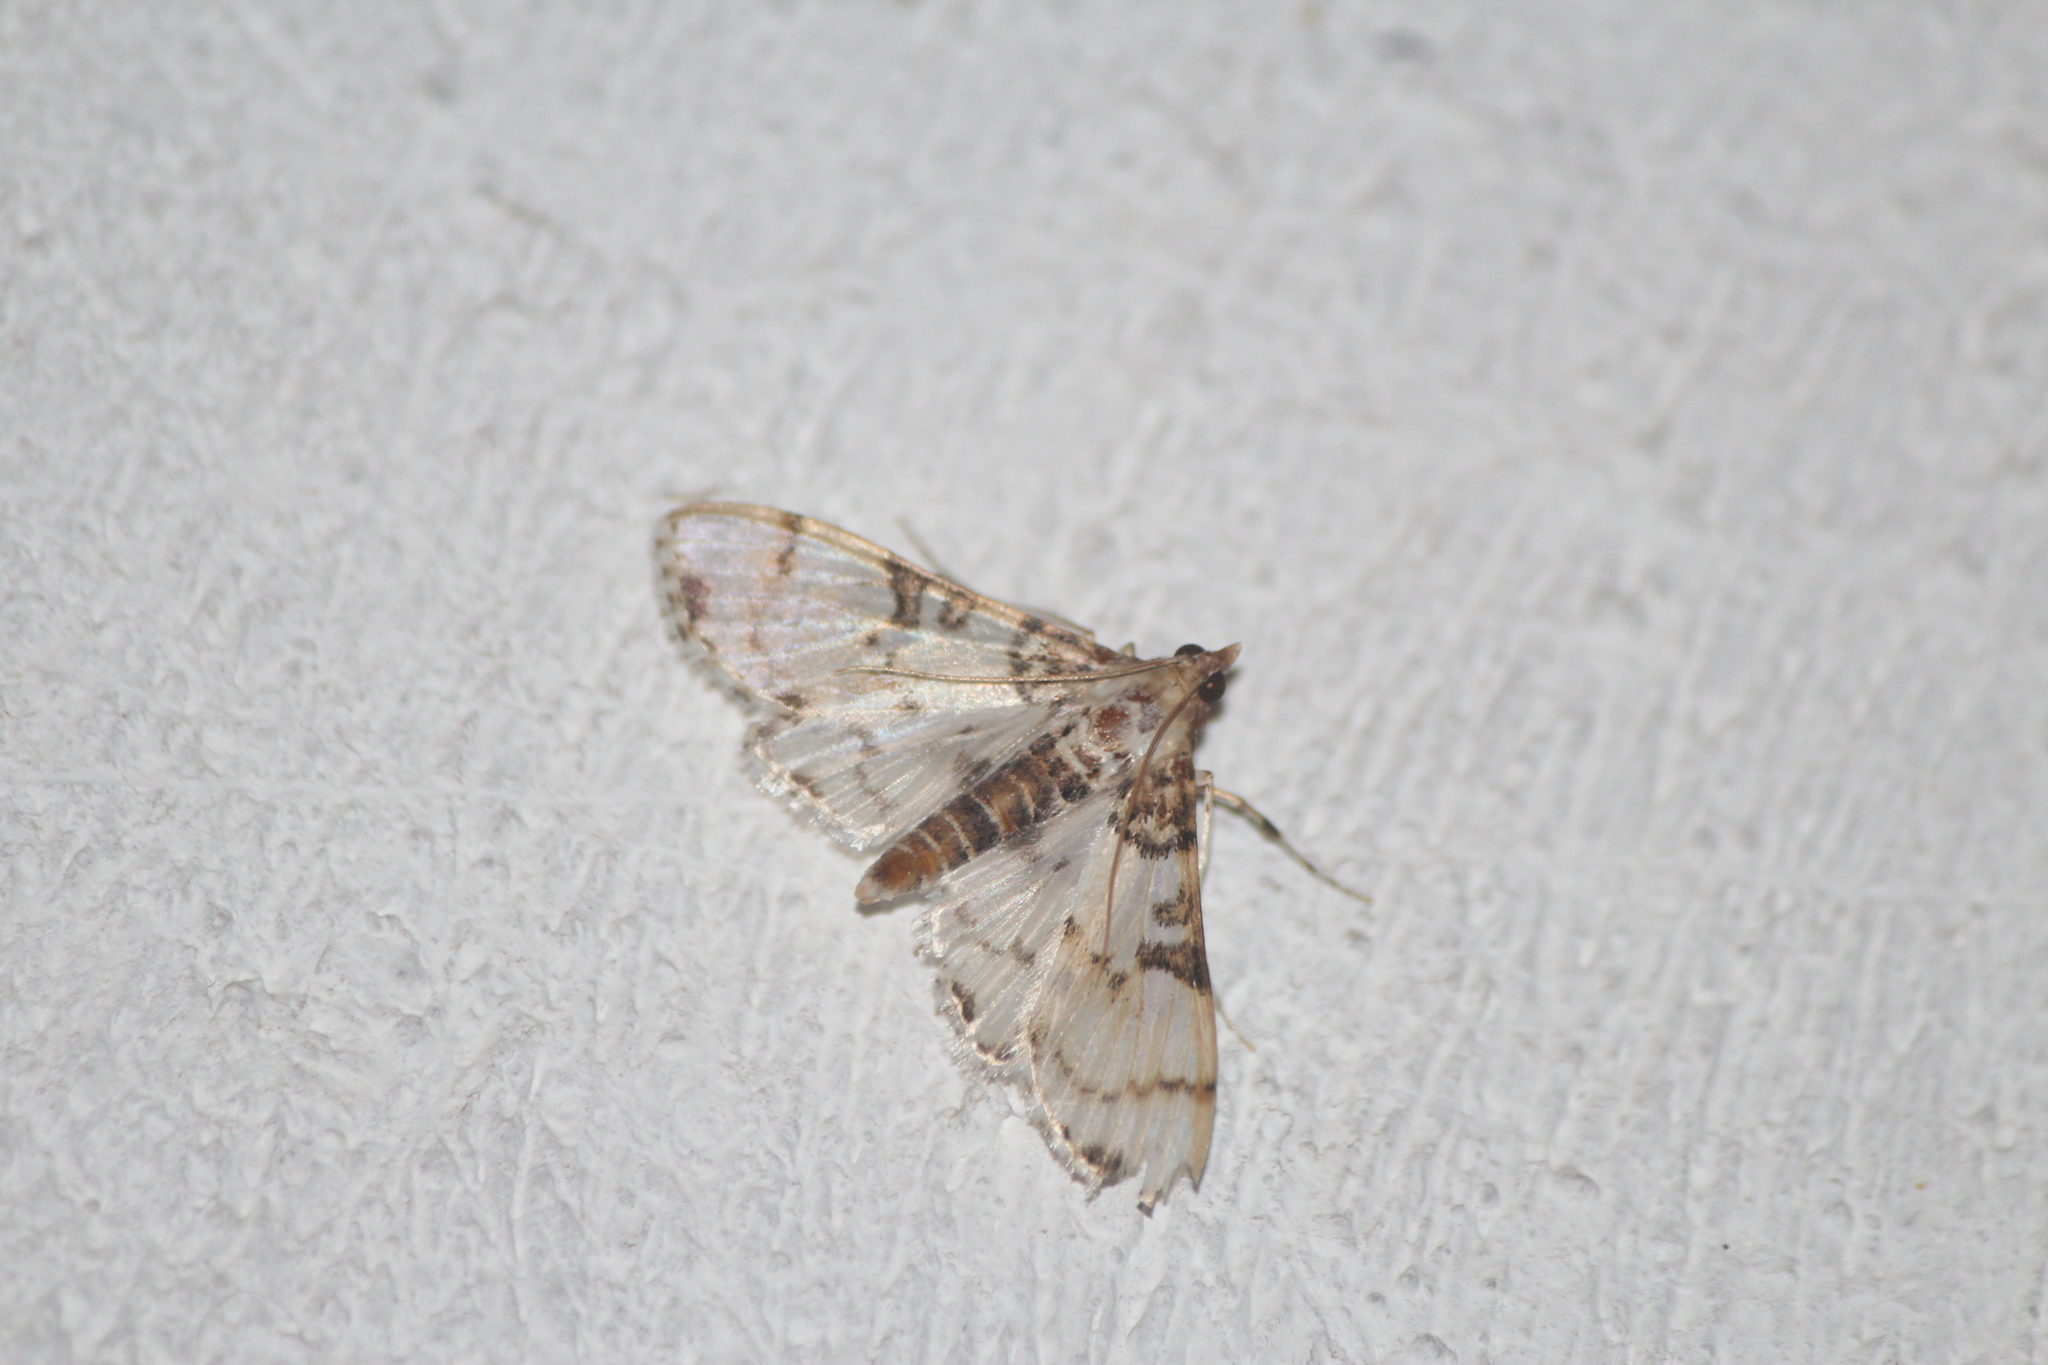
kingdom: Animalia
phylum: Arthropoda
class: Insecta
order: Lepidoptera
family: Crambidae
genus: Azochis
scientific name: Azochis rufidiscalis
